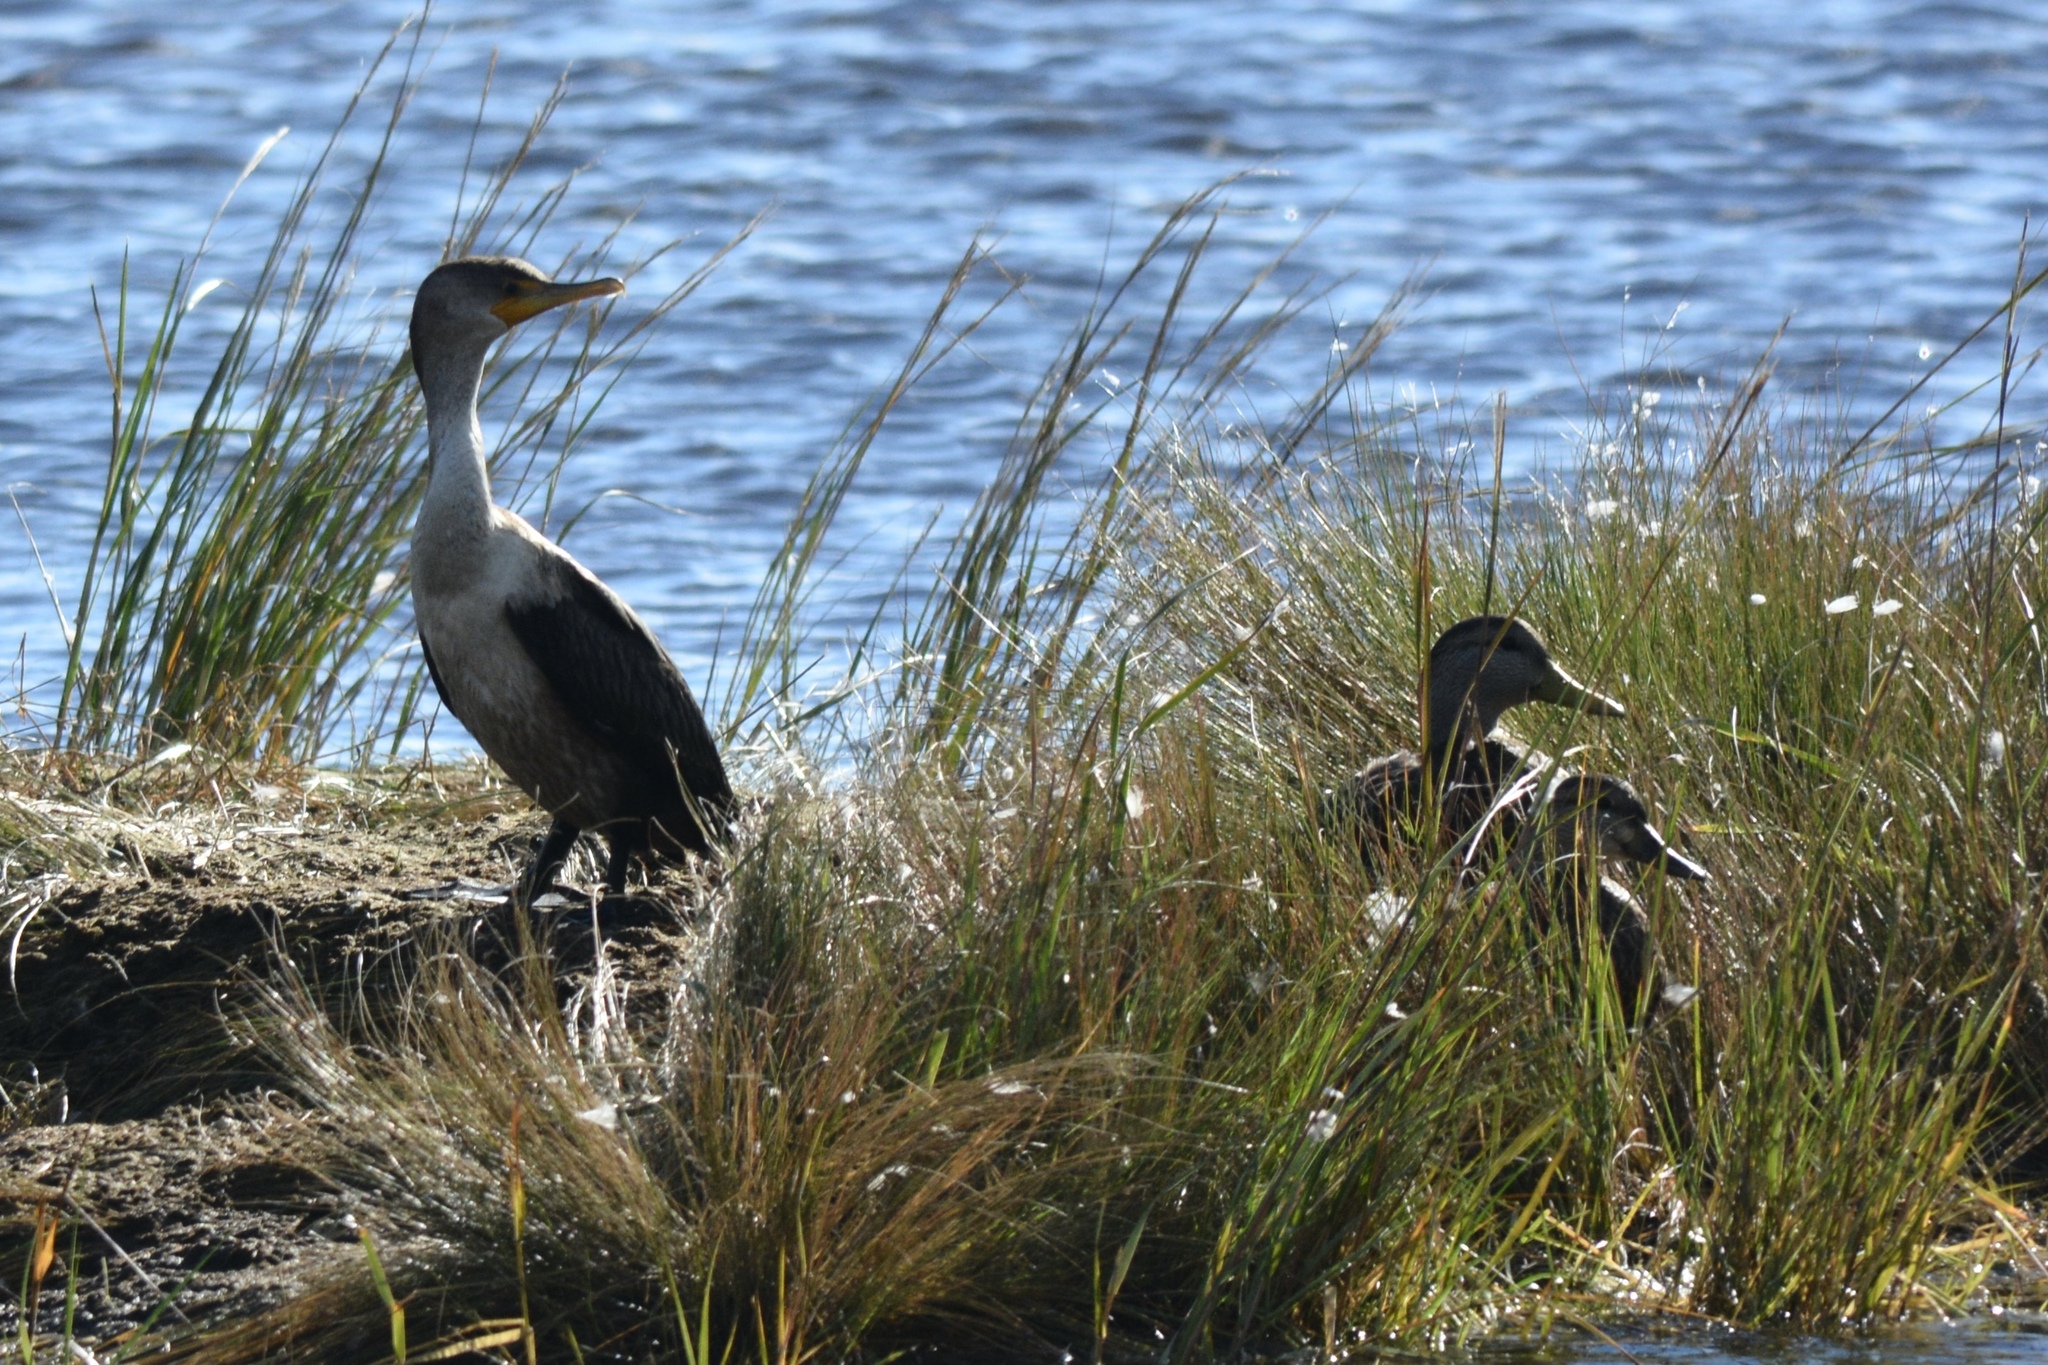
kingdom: Animalia
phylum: Chordata
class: Aves
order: Suliformes
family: Phalacrocoracidae
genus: Phalacrocorax
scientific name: Phalacrocorax auritus
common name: Double-crested cormorant
